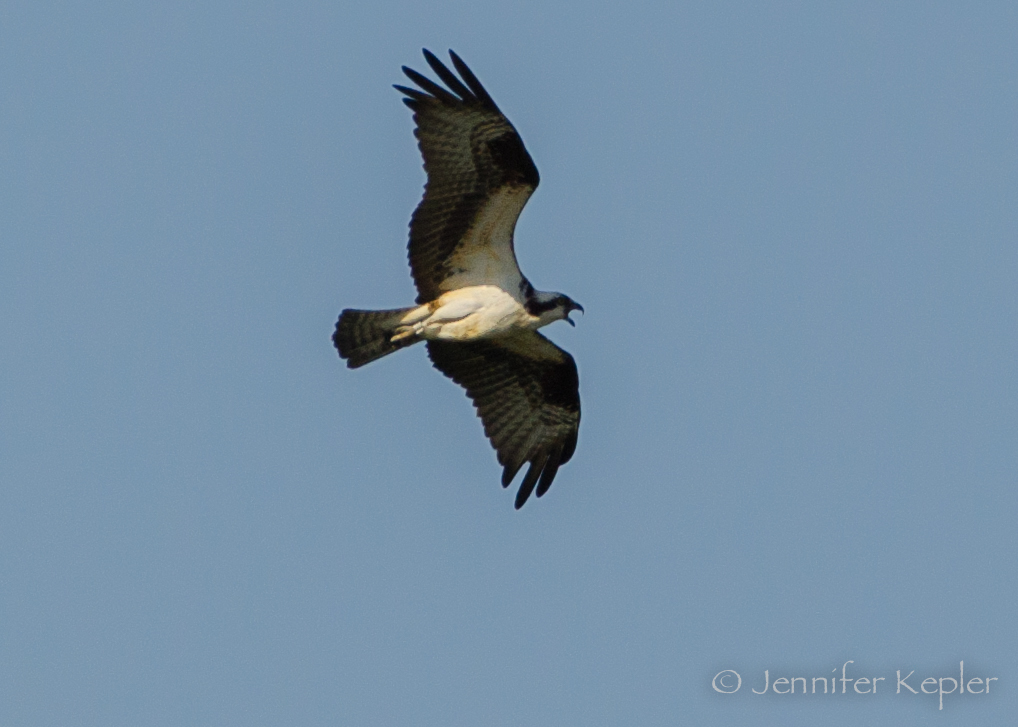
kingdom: Animalia
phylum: Chordata
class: Aves
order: Accipitriformes
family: Pandionidae
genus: Pandion
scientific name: Pandion haliaetus
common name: Osprey
